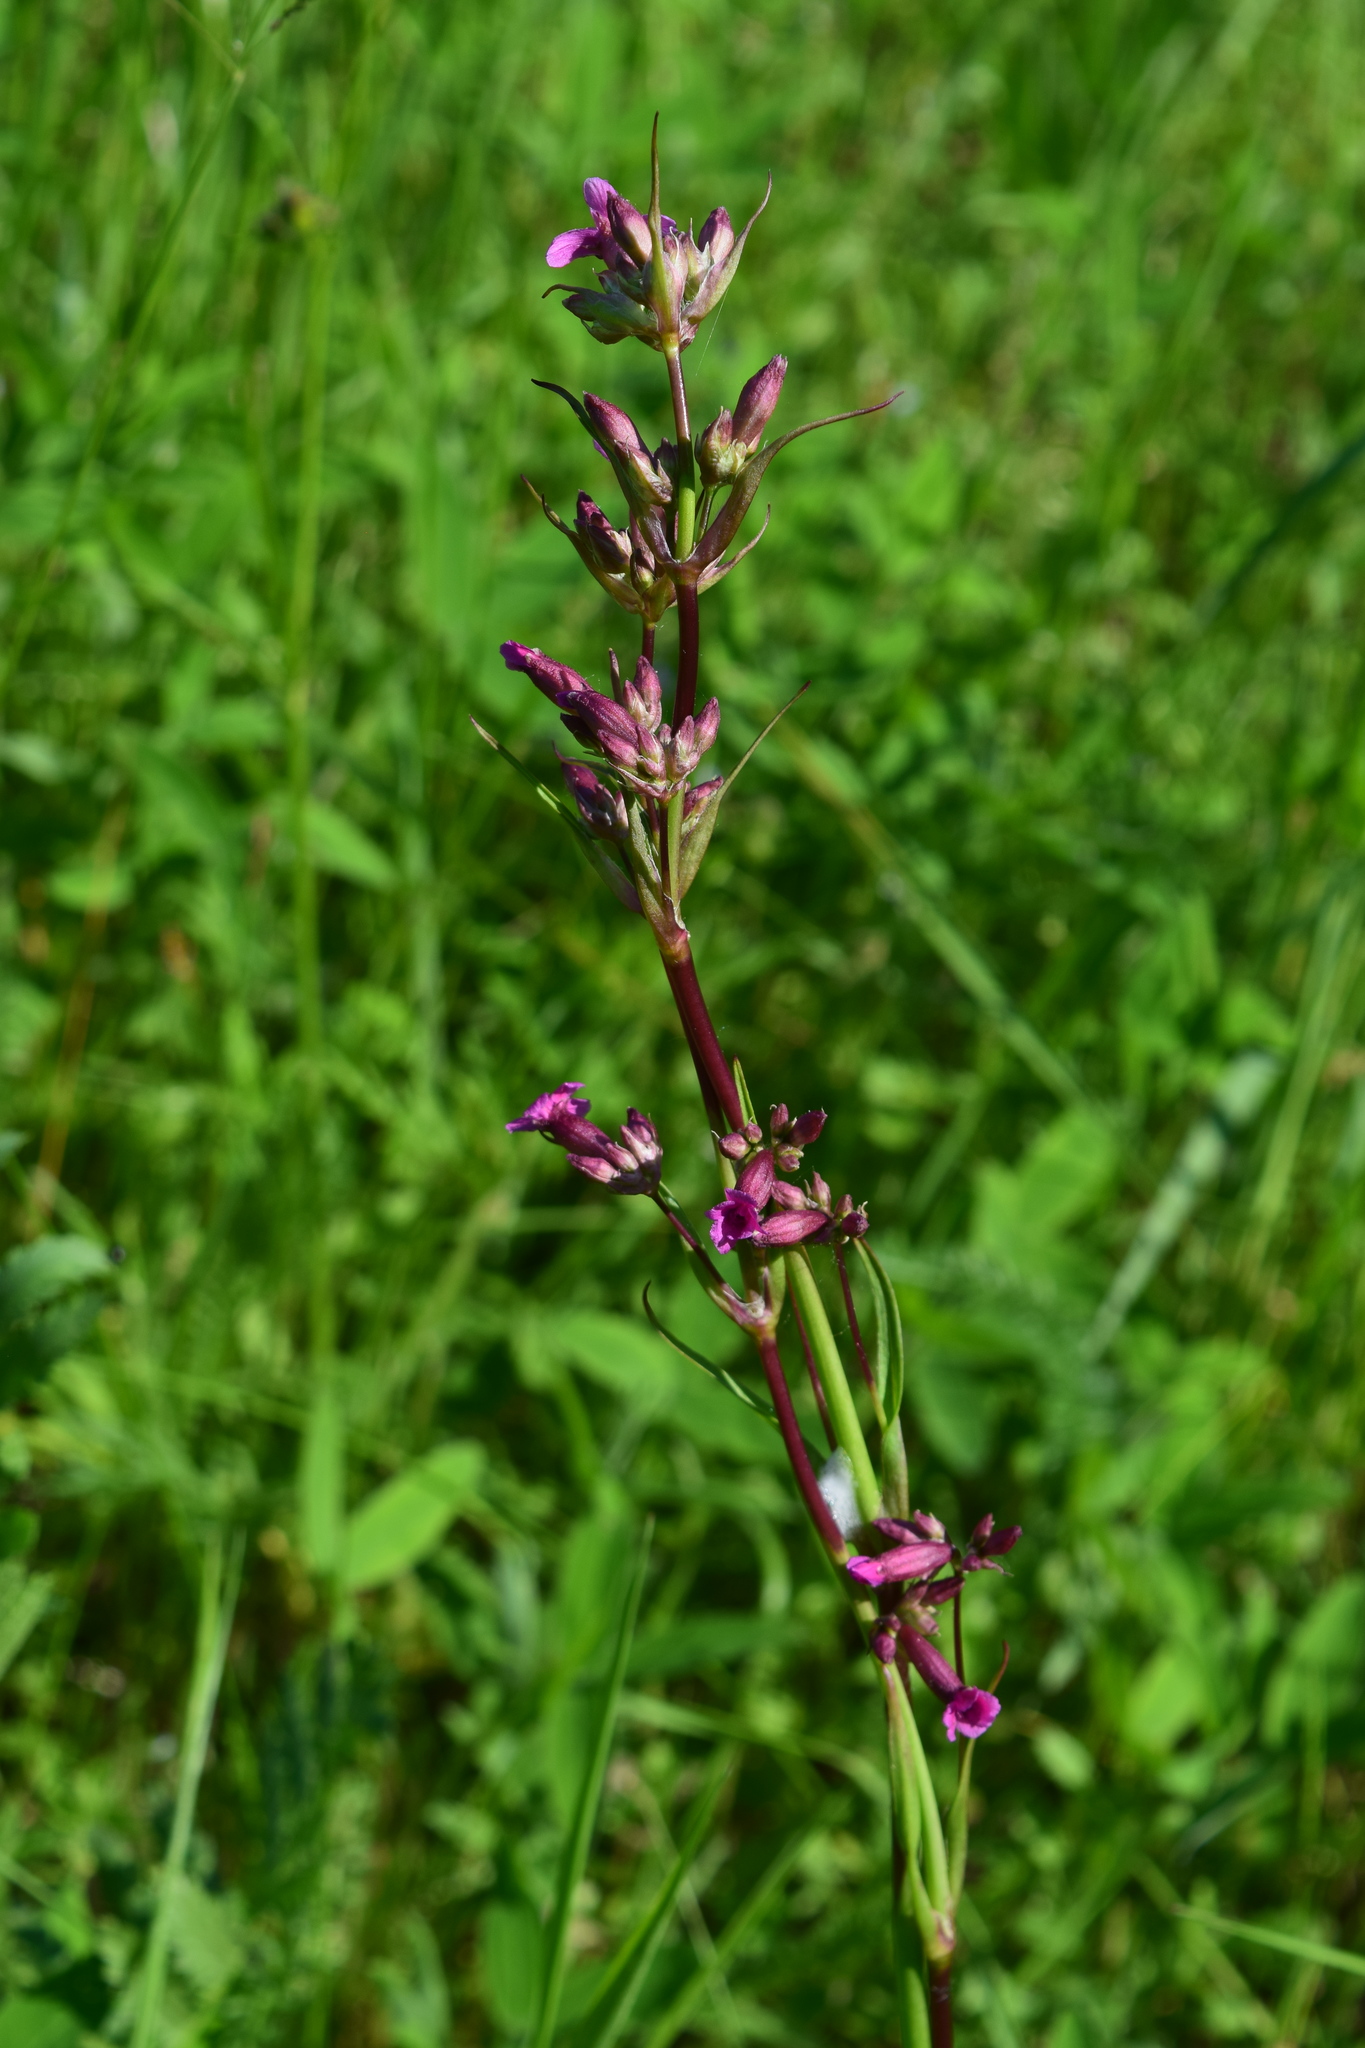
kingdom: Plantae
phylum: Tracheophyta
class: Magnoliopsida
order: Caryophyllales
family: Caryophyllaceae
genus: Viscaria
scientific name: Viscaria vulgaris
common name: Clammy campion
